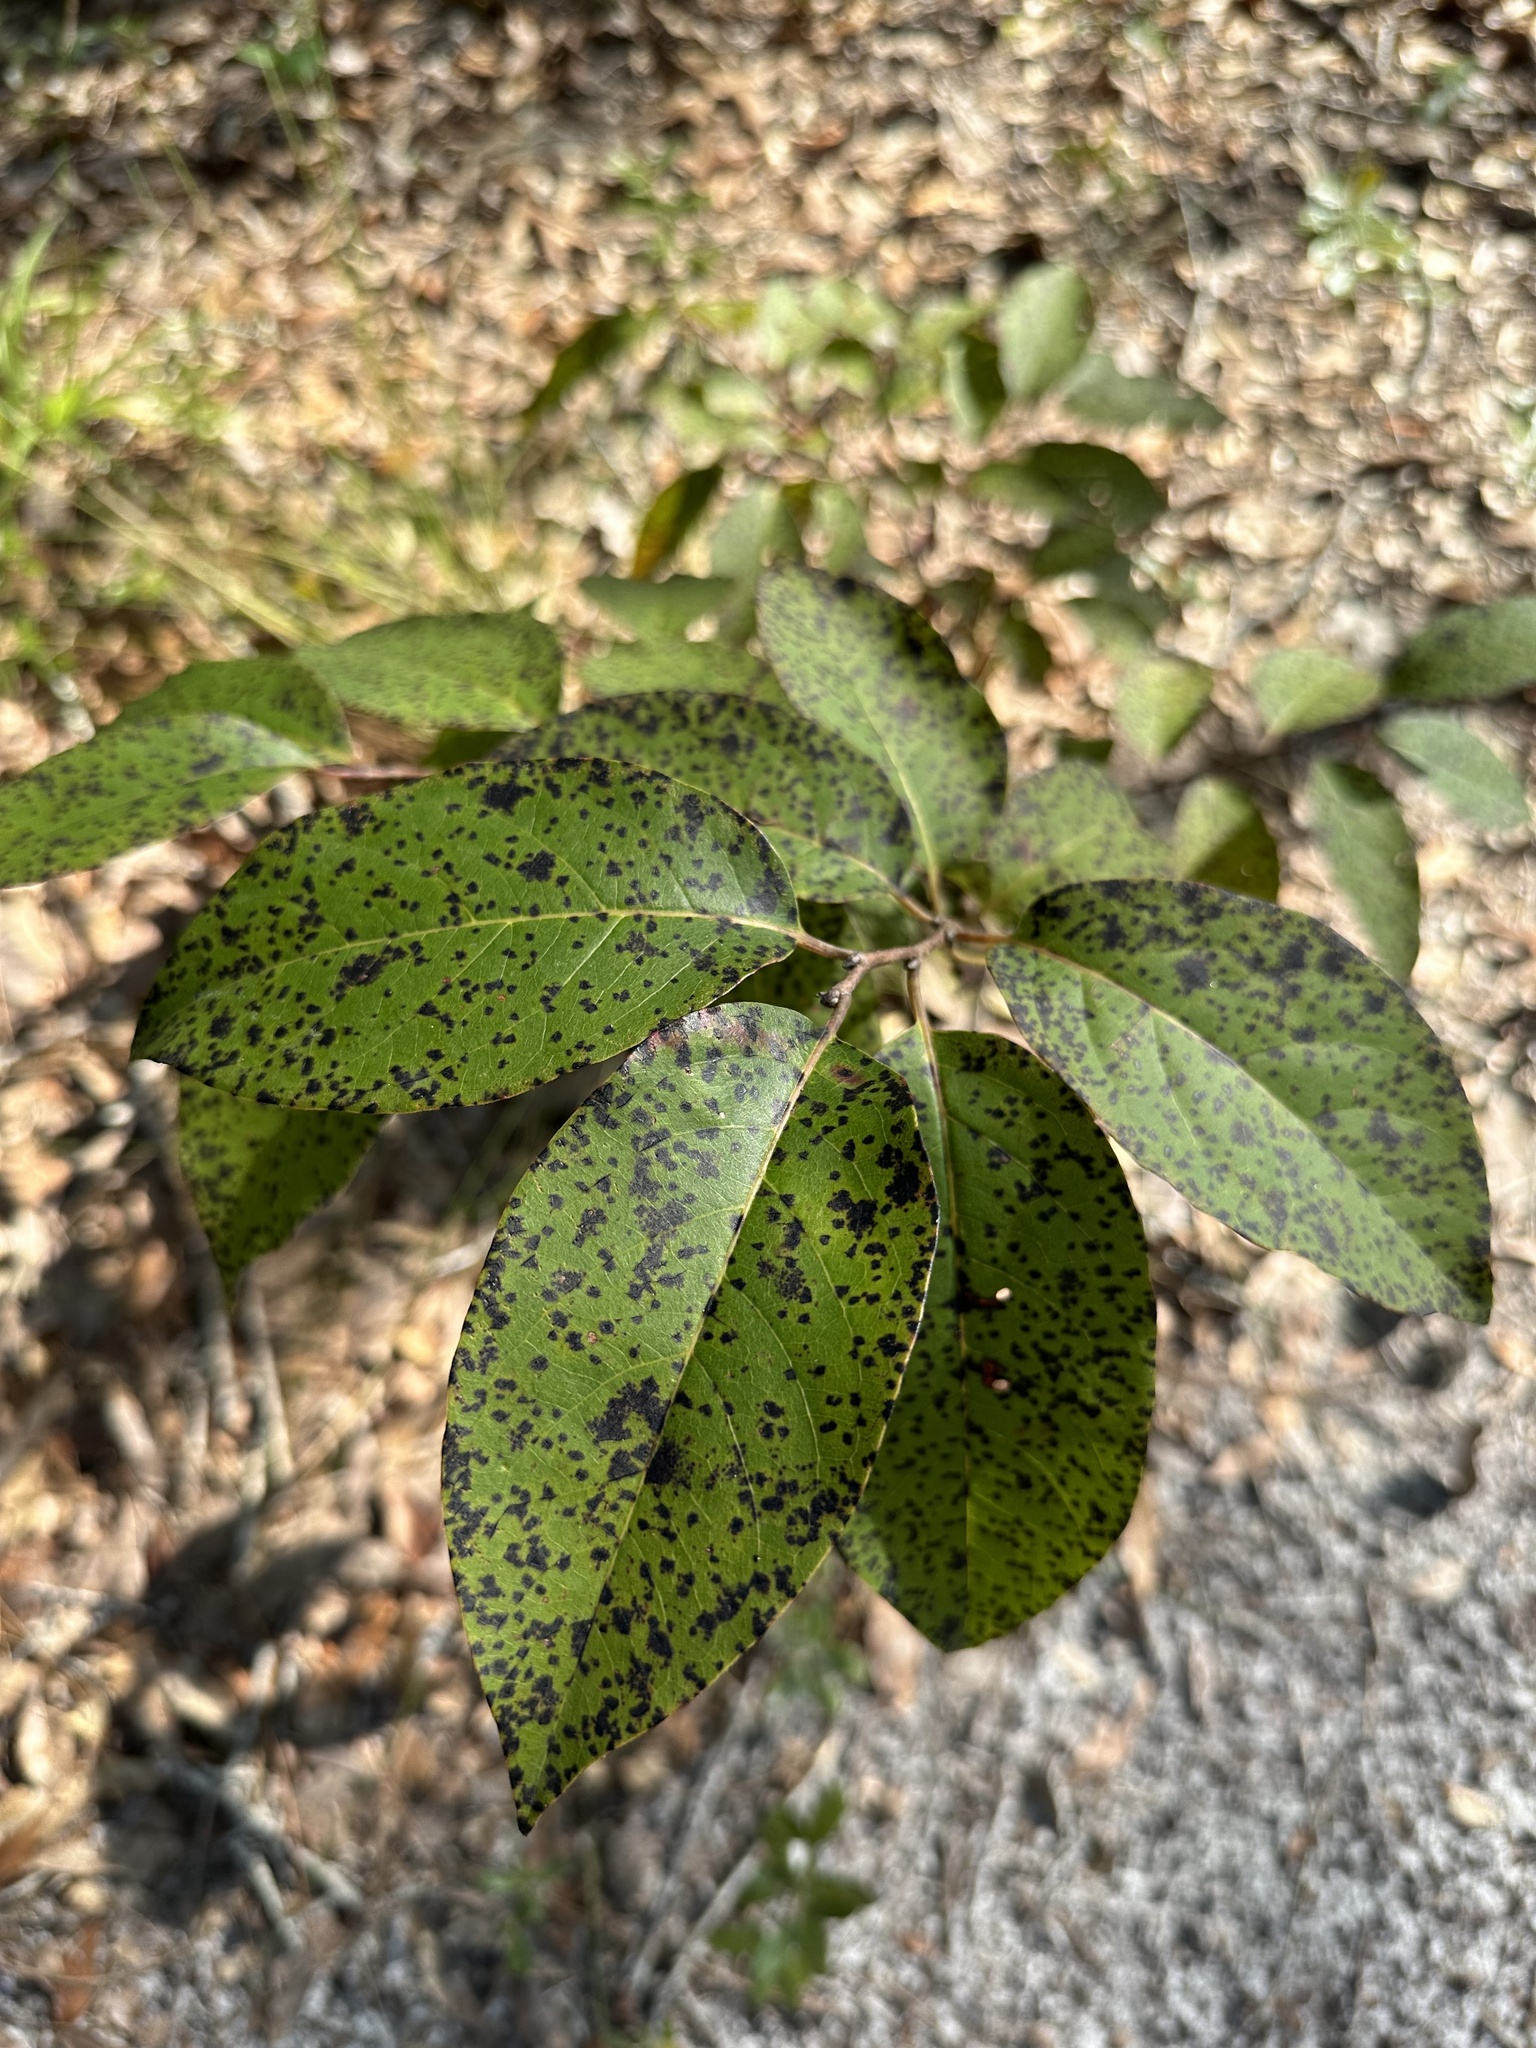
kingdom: Plantae
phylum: Tracheophyta
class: Magnoliopsida
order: Ericales
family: Ebenaceae
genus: Diospyros
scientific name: Diospyros virginiana
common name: Persimmon
